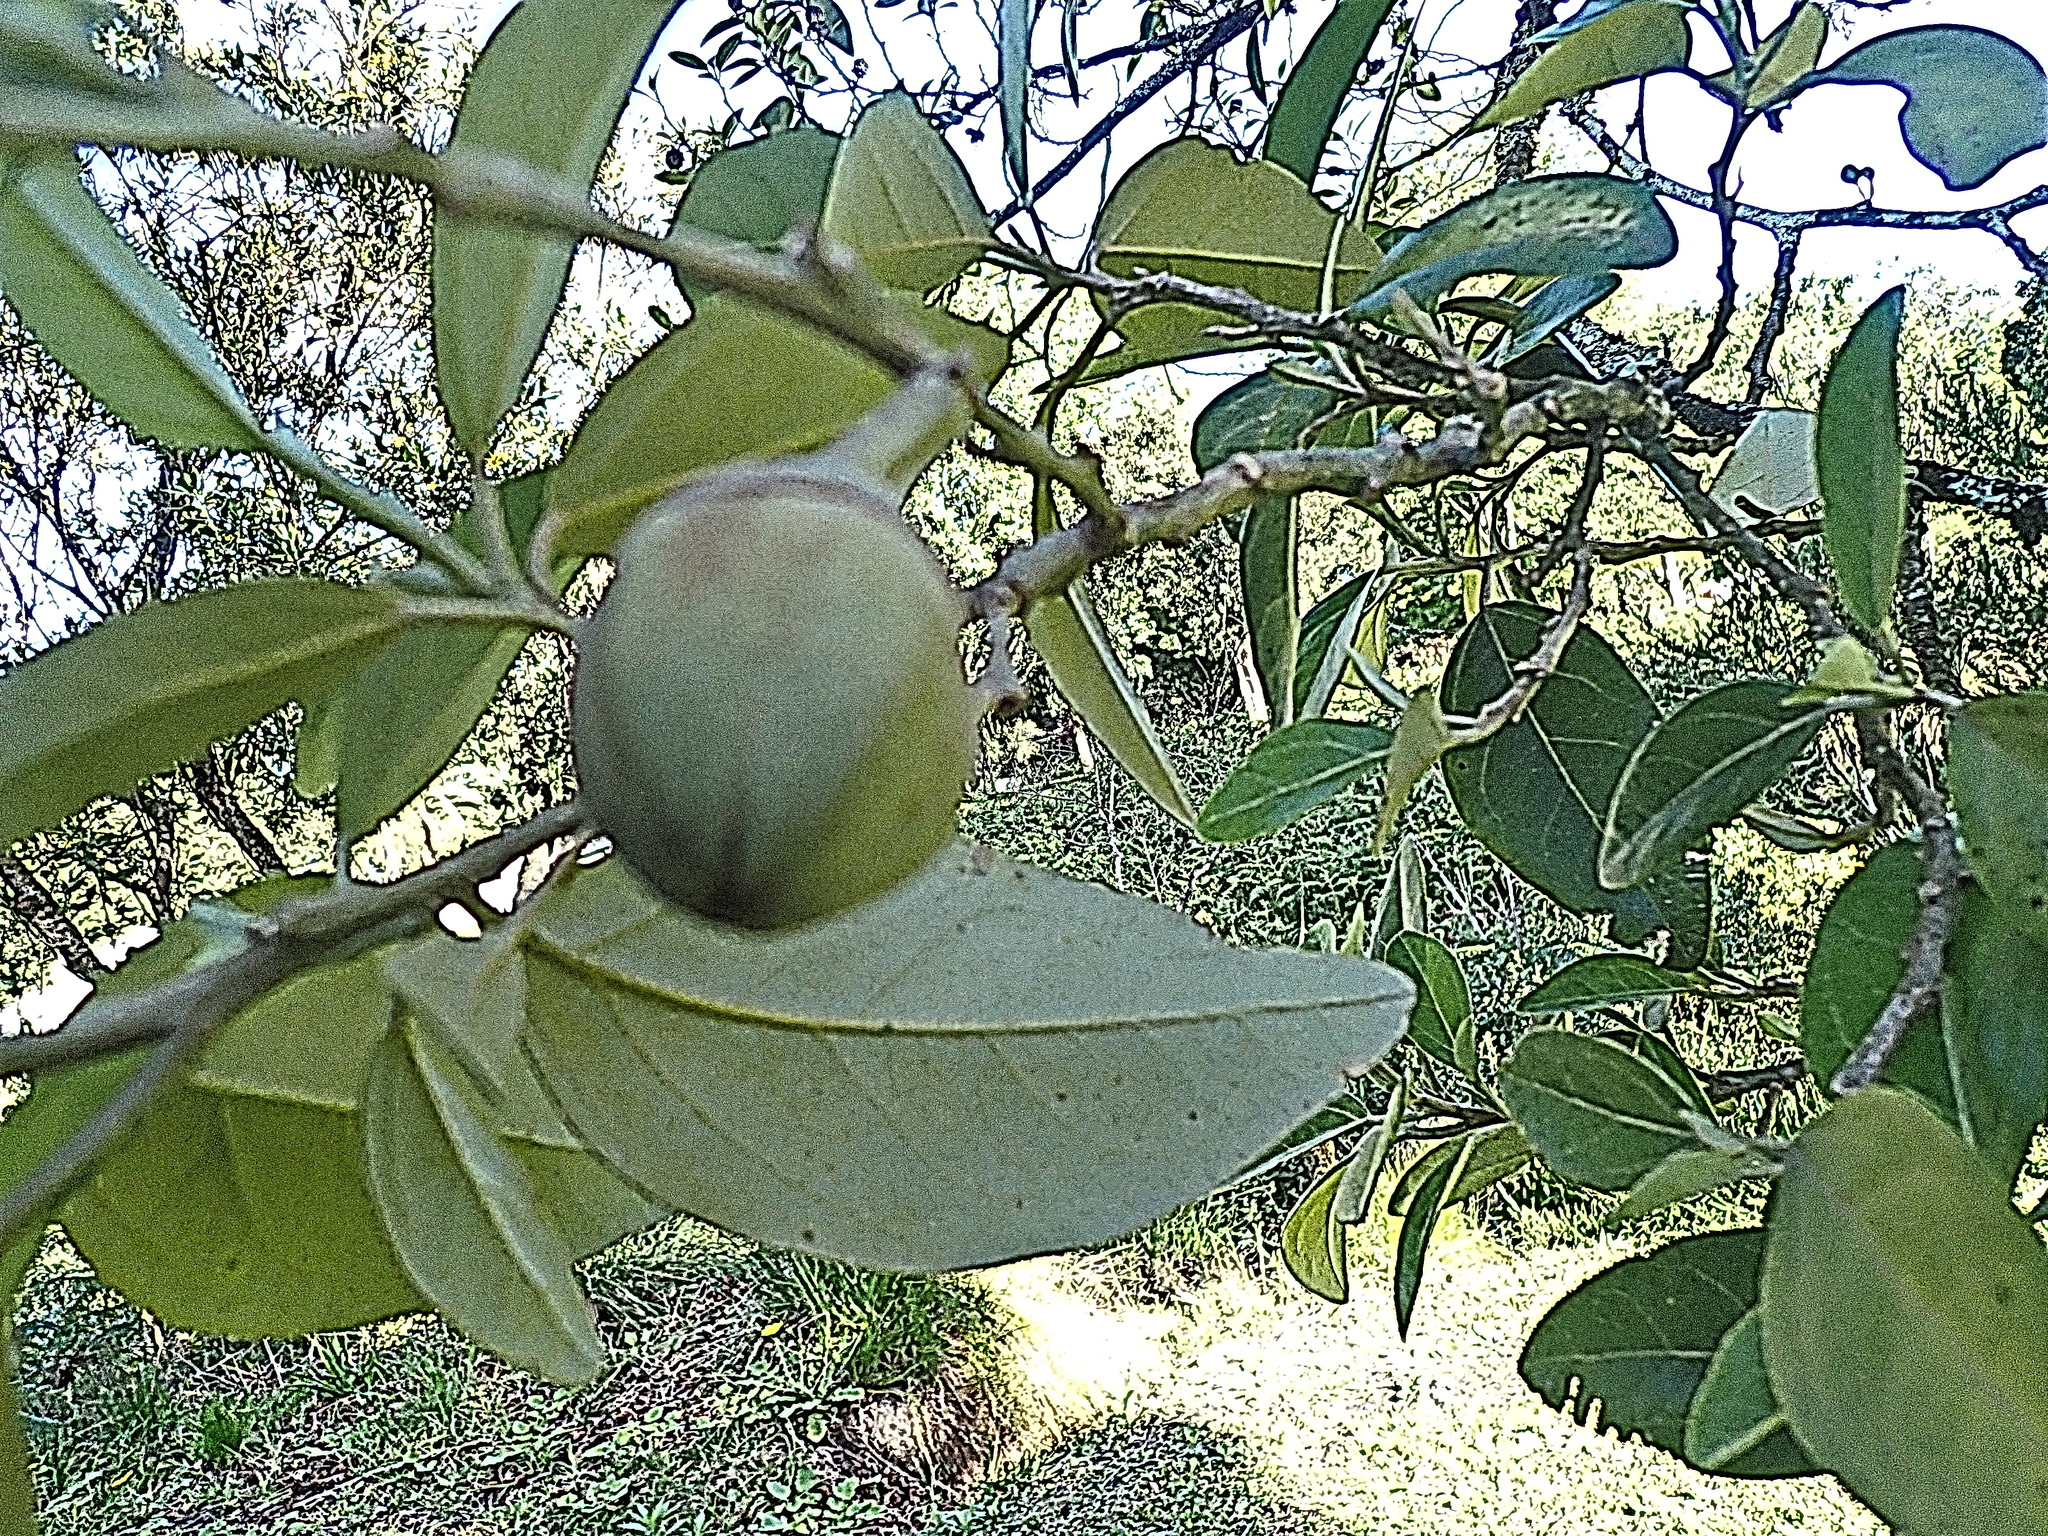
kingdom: Plantae
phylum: Tracheophyta
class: Magnoliopsida
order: Malpighiales
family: Achariaceae
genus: Kiggelaria
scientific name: Kiggelaria africana
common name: Wild peach
